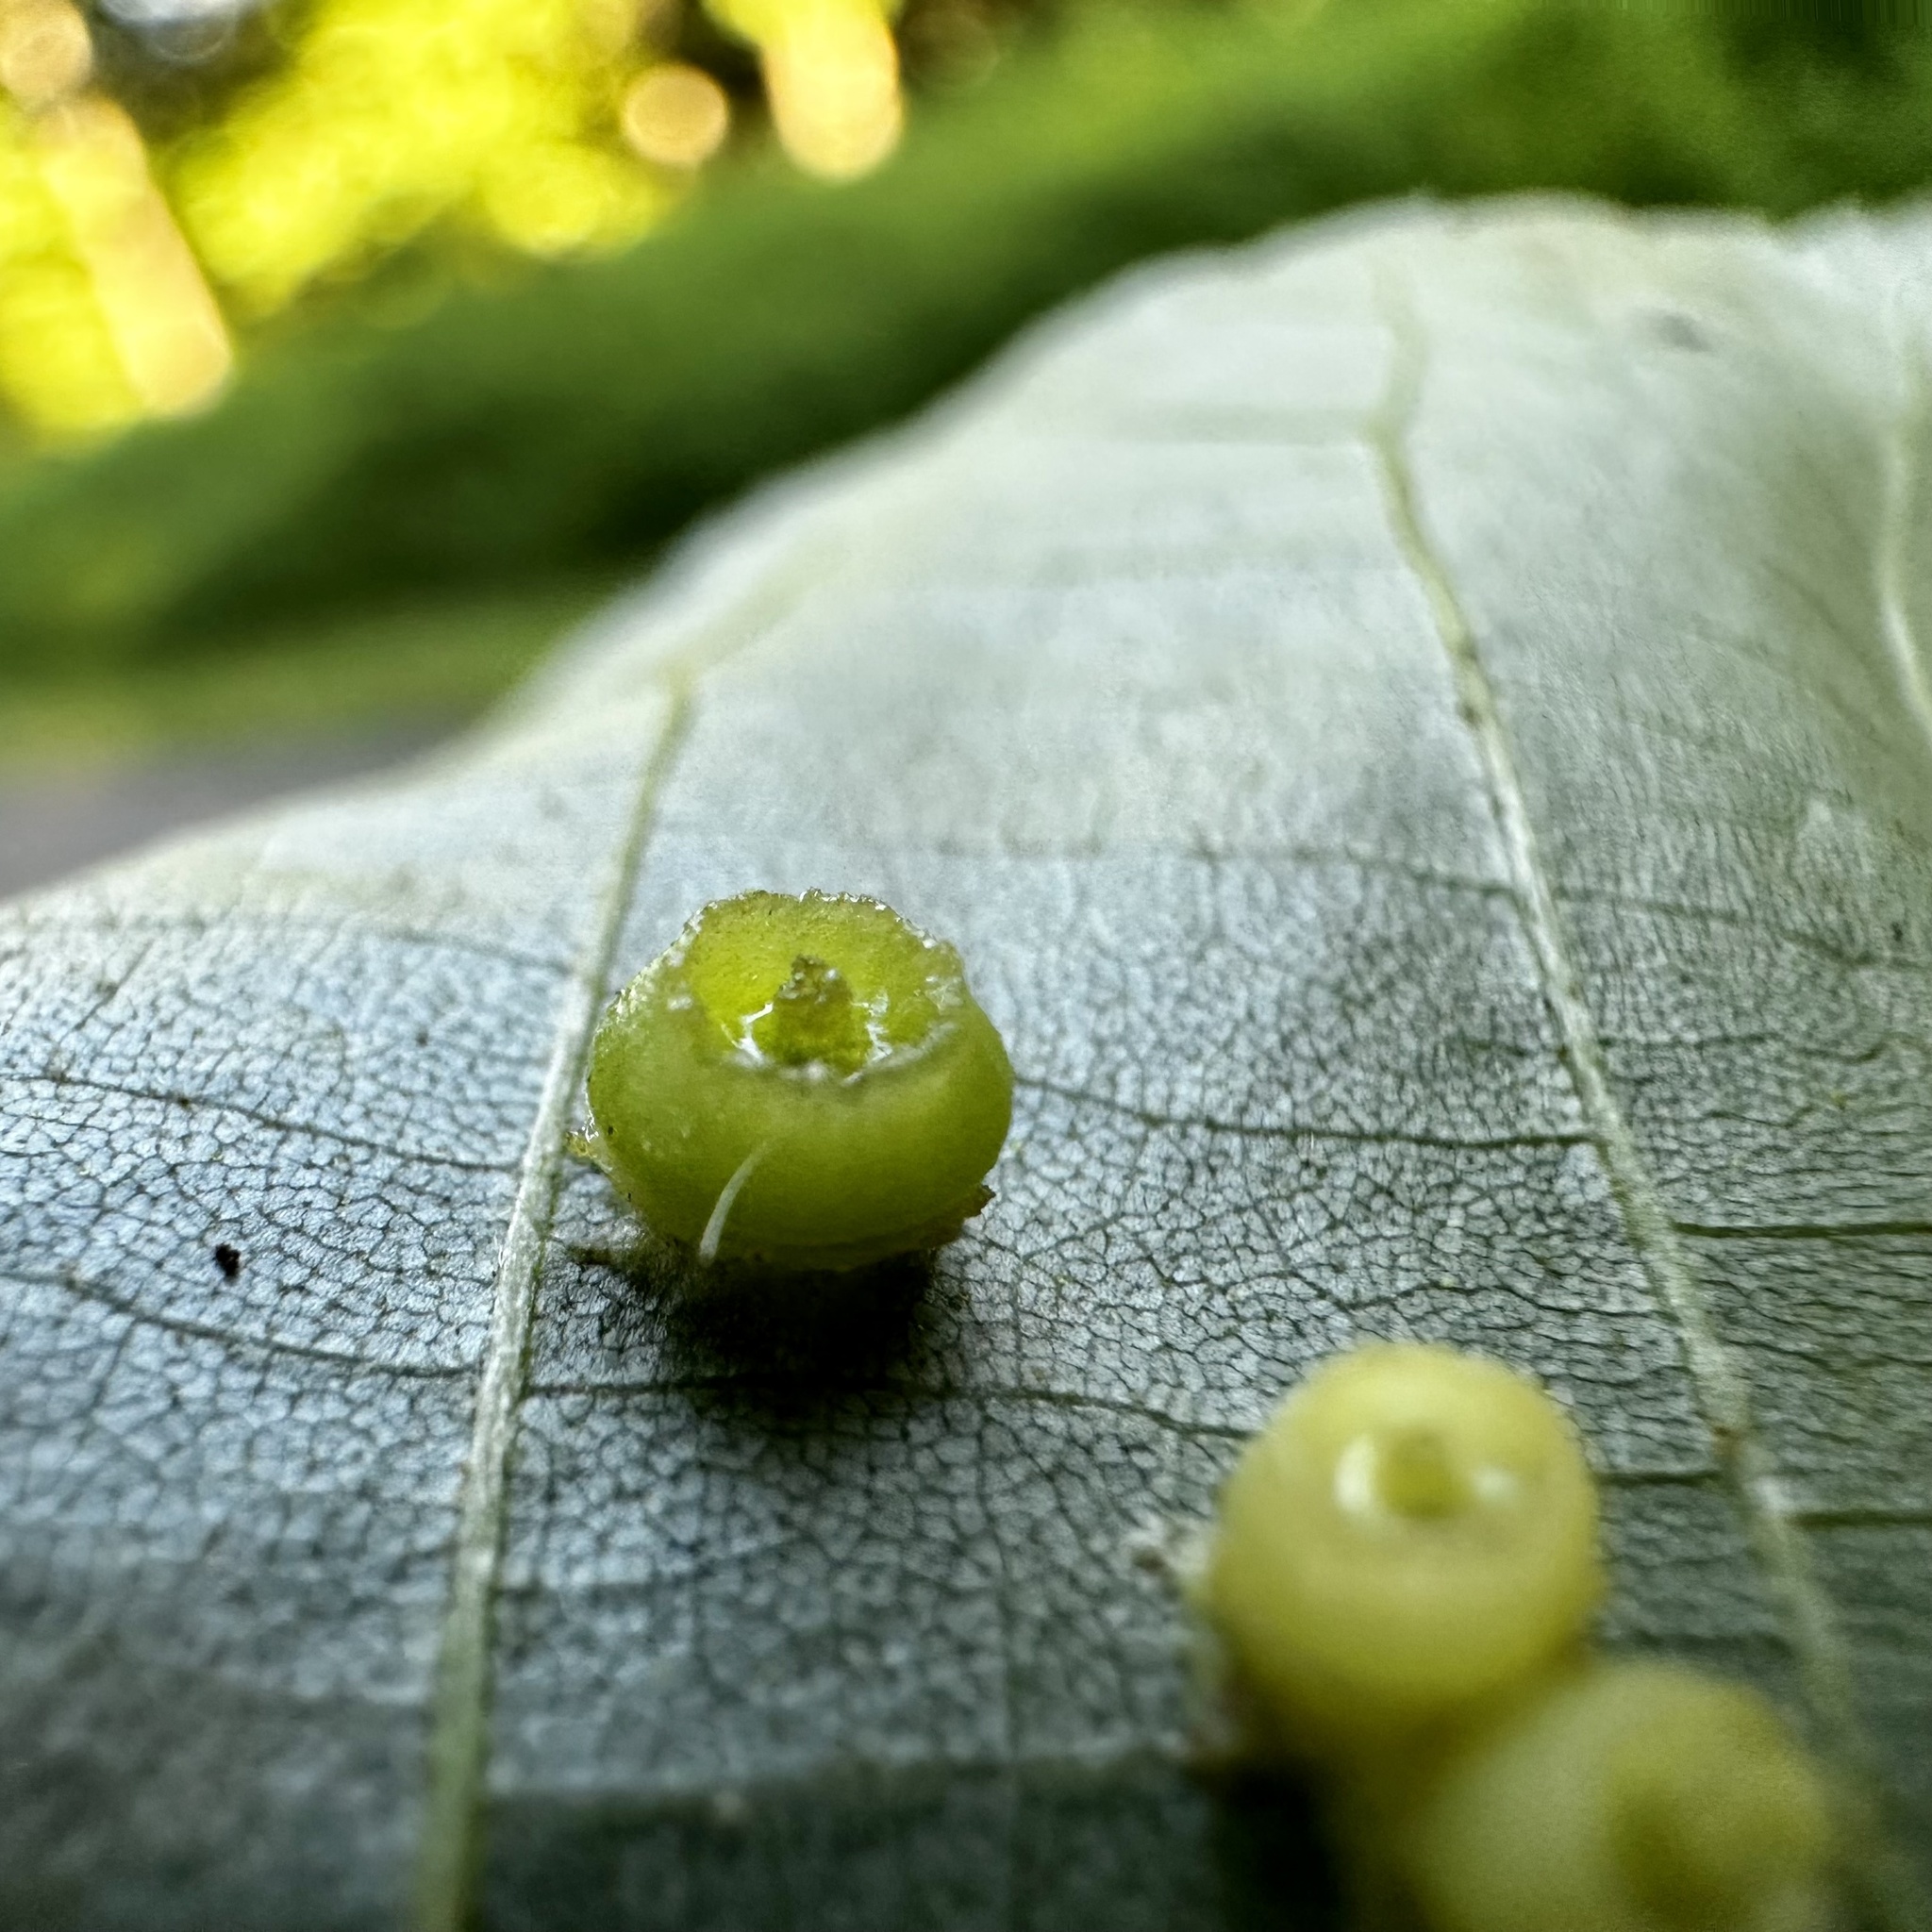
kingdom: Animalia
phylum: Arthropoda
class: Insecta
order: Diptera
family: Cecidomyiidae
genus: Caryomyia
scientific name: Caryomyia melicrustum
